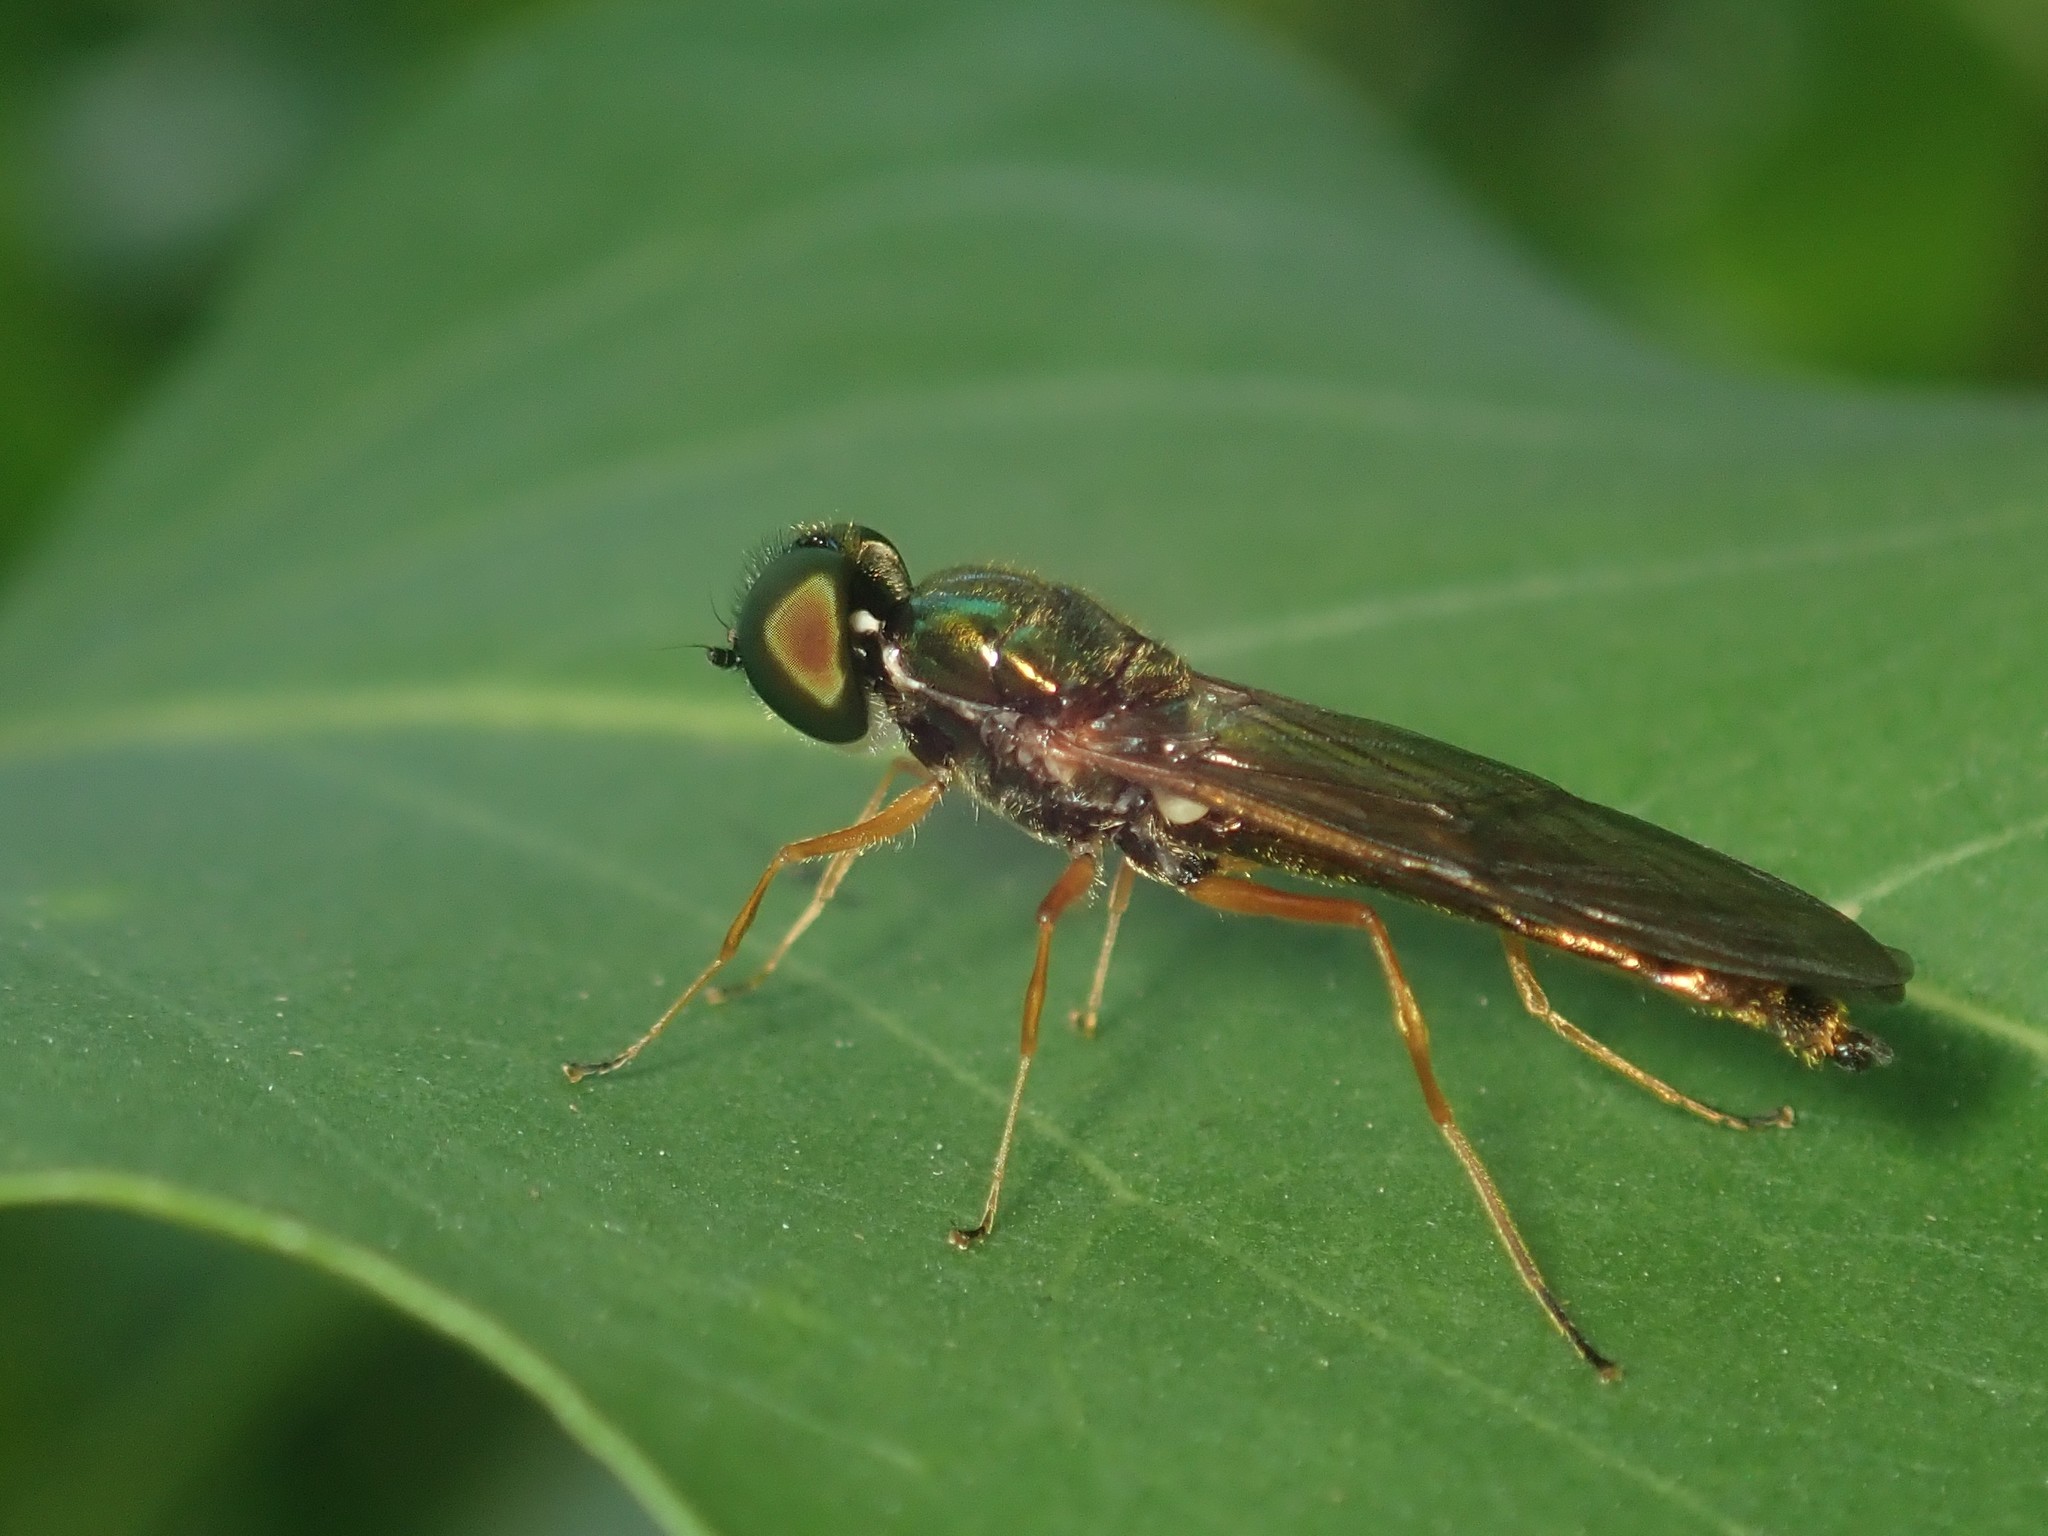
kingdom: Animalia
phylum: Arthropoda
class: Insecta
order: Diptera
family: Stratiomyidae
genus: Sargus
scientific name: Sargus bipunctatus
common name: Twin-spot centurion
